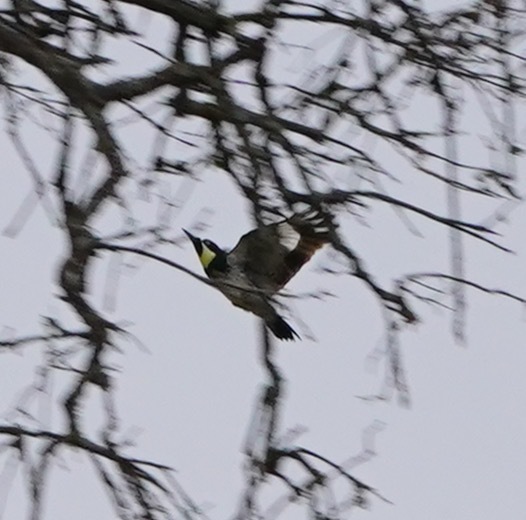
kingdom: Animalia
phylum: Chordata
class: Aves
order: Piciformes
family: Picidae
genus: Melanerpes
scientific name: Melanerpes formicivorus
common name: Acorn woodpecker
